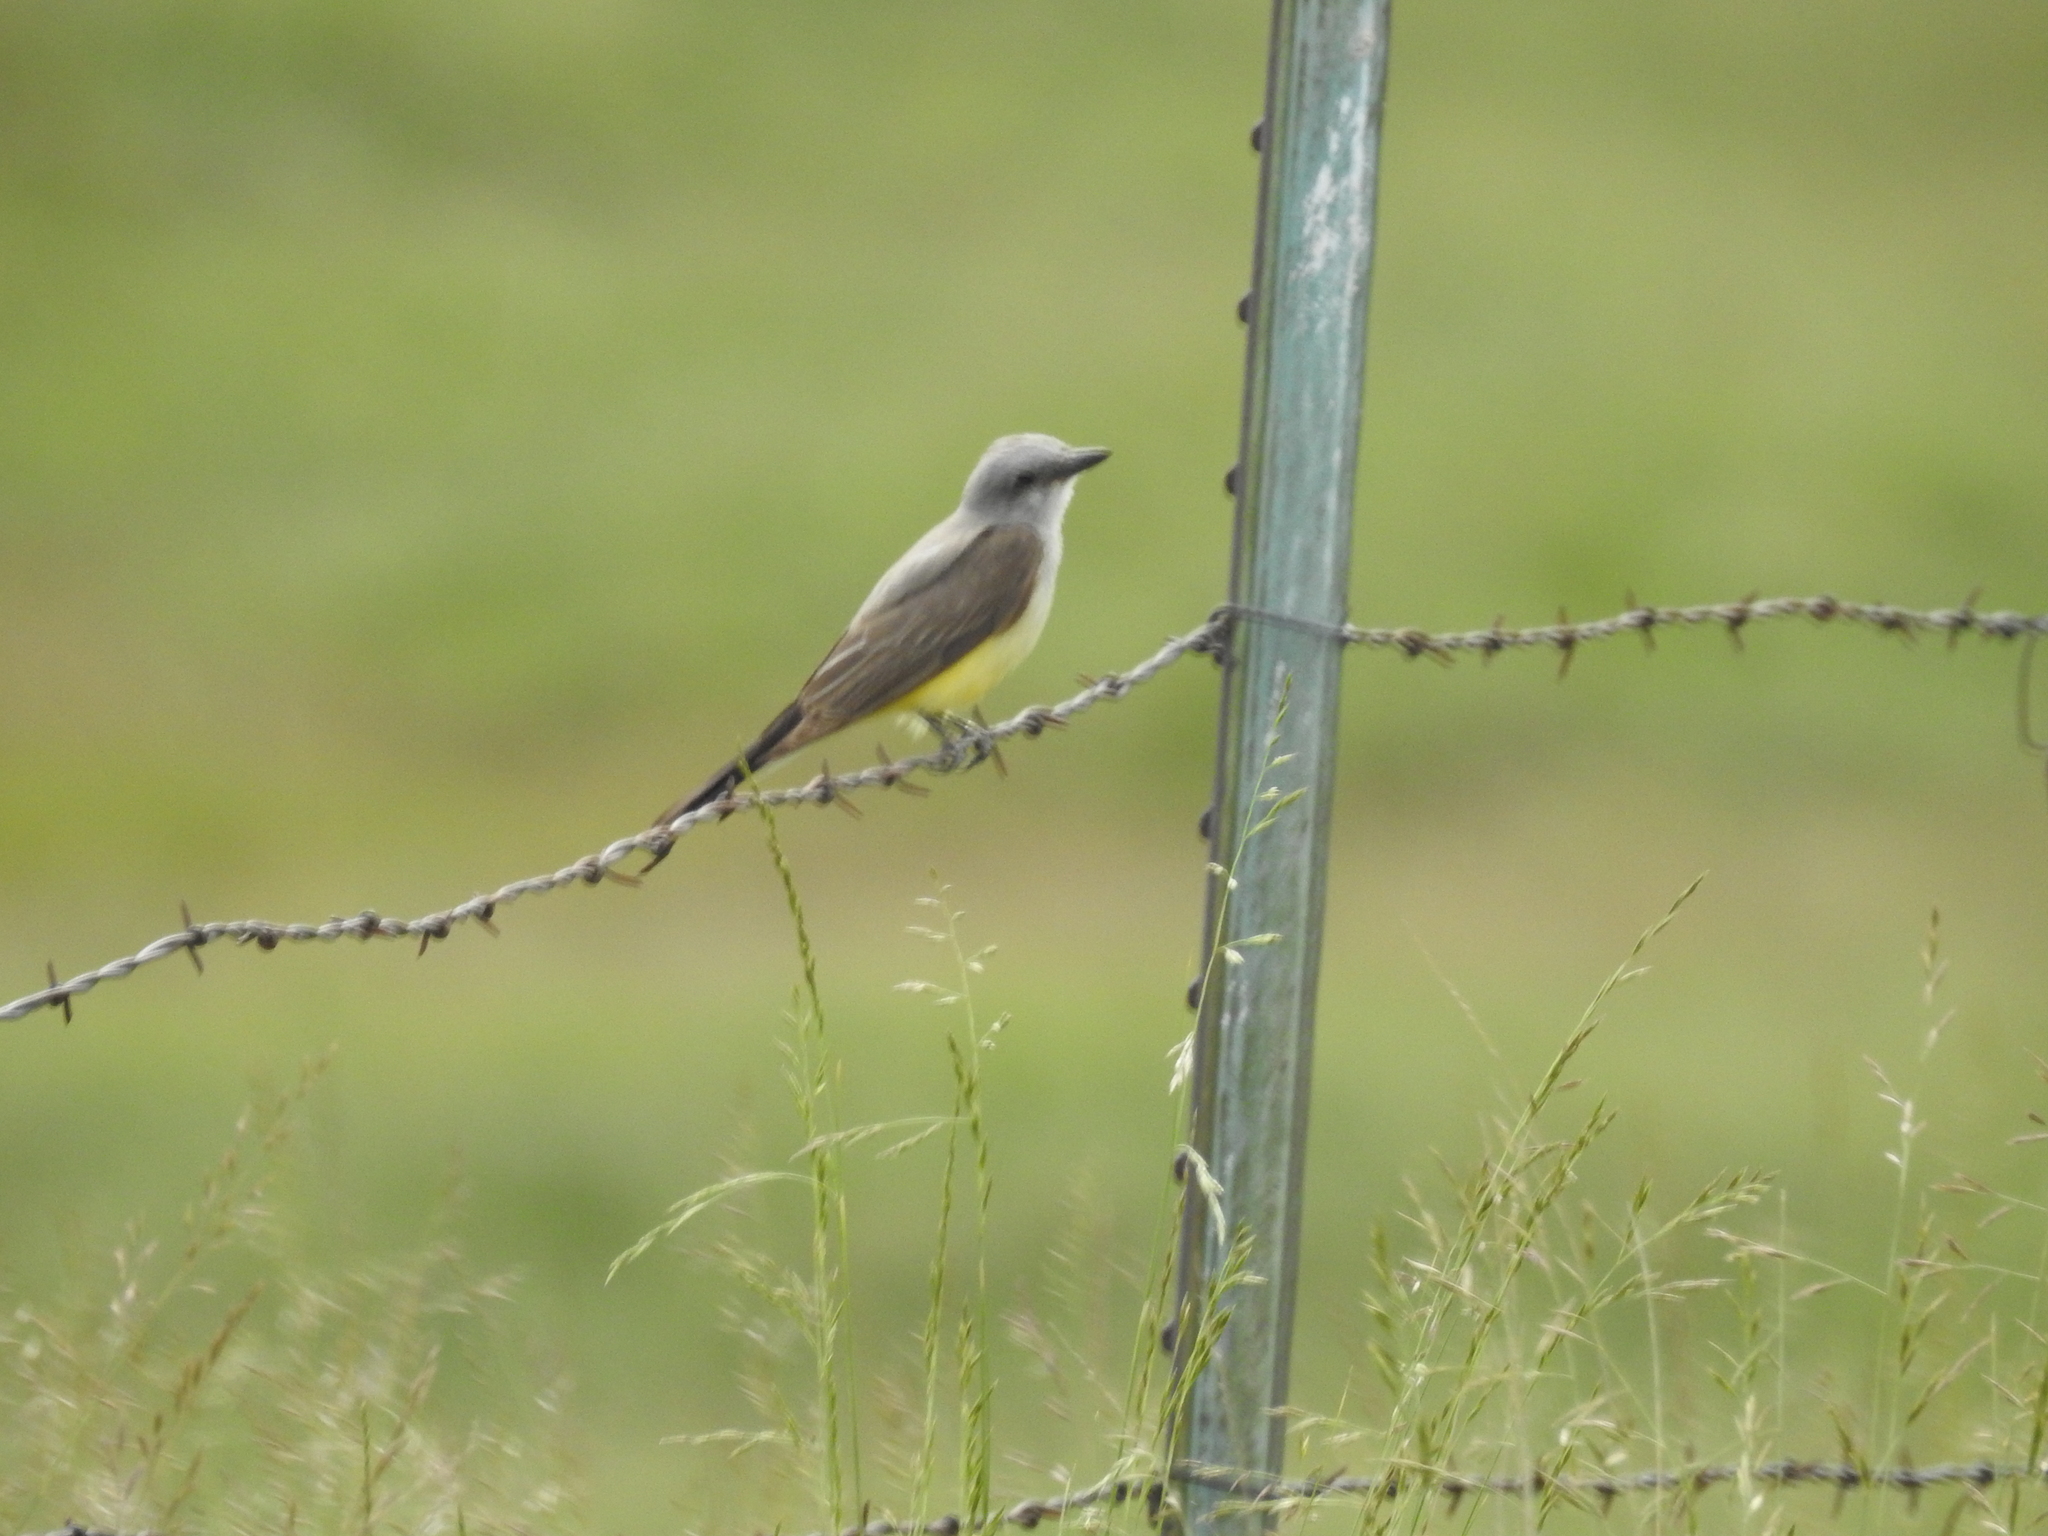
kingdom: Animalia
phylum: Chordata
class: Aves
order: Passeriformes
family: Tyrannidae
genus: Tyrannus
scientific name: Tyrannus verticalis
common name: Western kingbird
